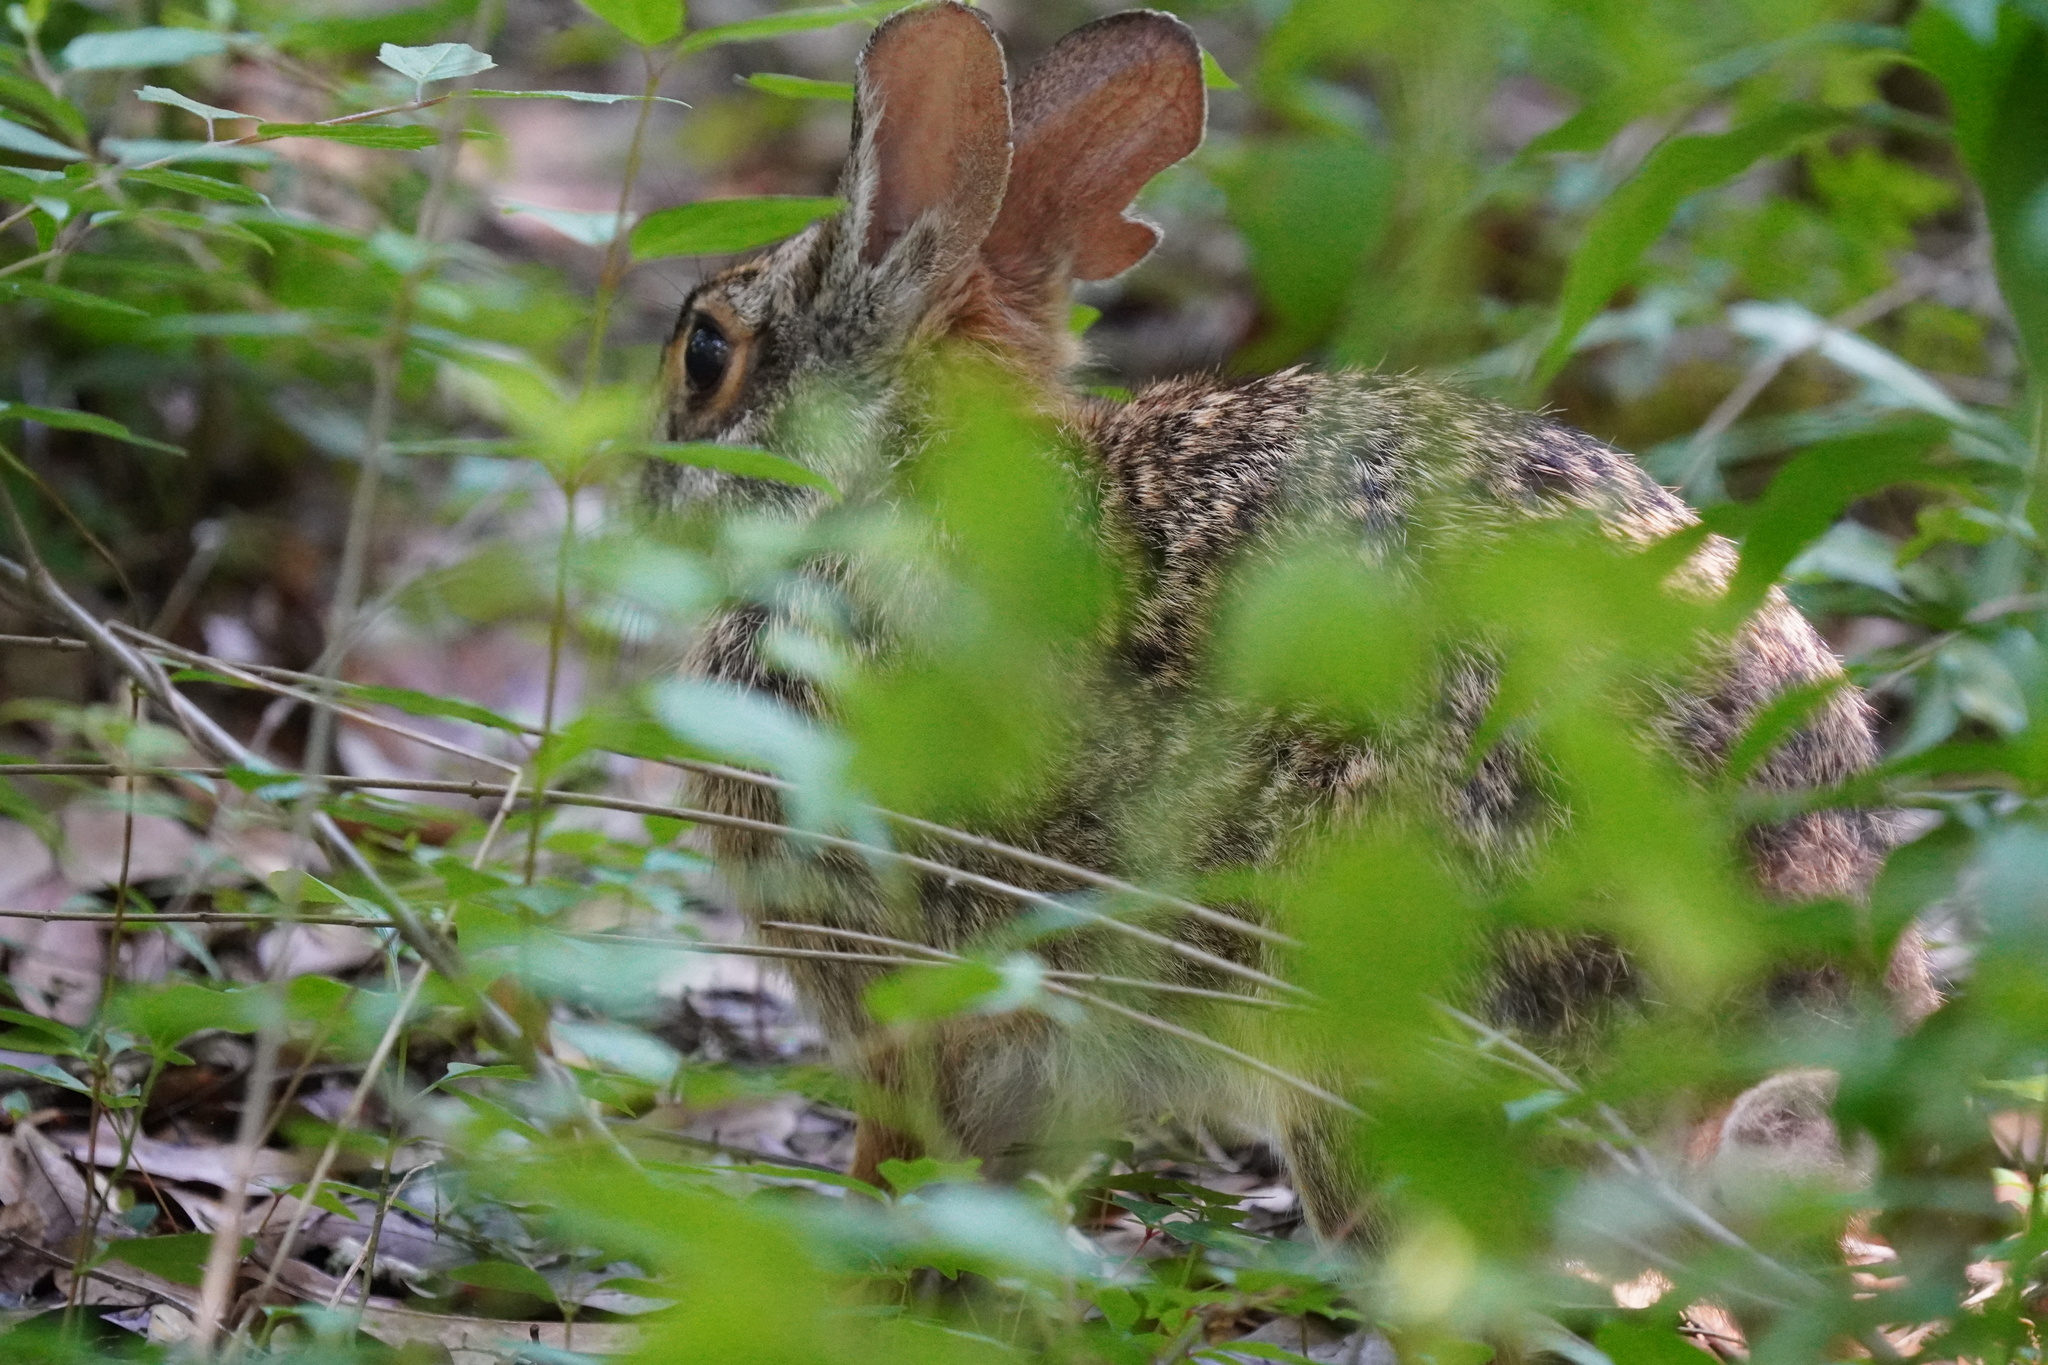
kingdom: Animalia
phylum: Chordata
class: Mammalia
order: Lagomorpha
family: Leporidae
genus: Sylvilagus
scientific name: Sylvilagus aquaticus
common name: Swamp rabbit
